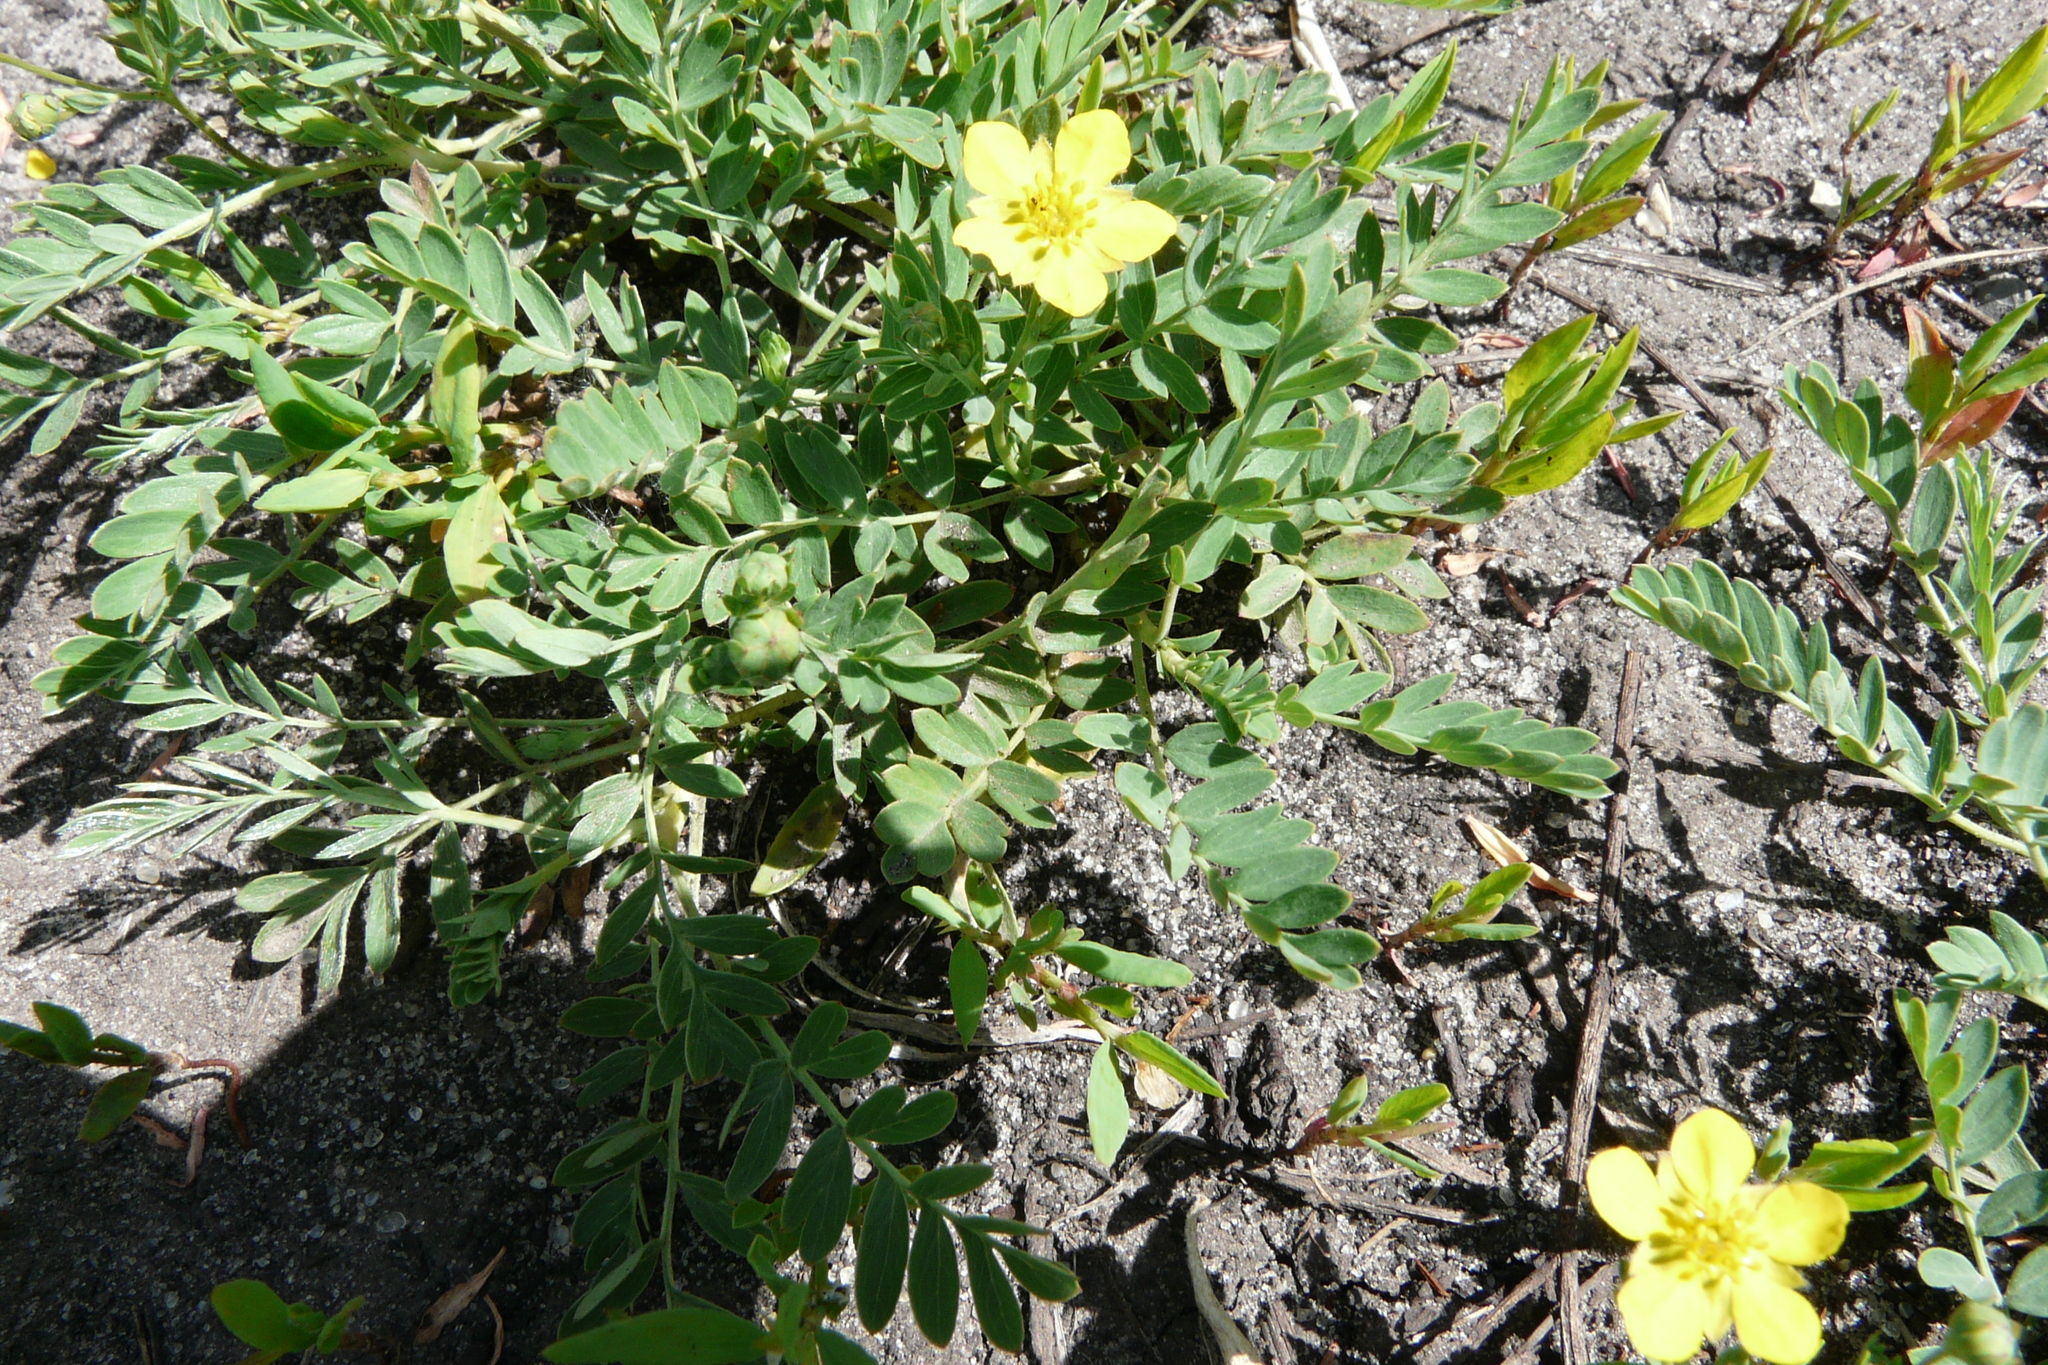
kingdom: Plantae
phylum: Tracheophyta
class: Magnoliopsida
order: Rosales
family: Rosaceae
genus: Sibbaldianthe
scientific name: Sibbaldianthe bifurca
